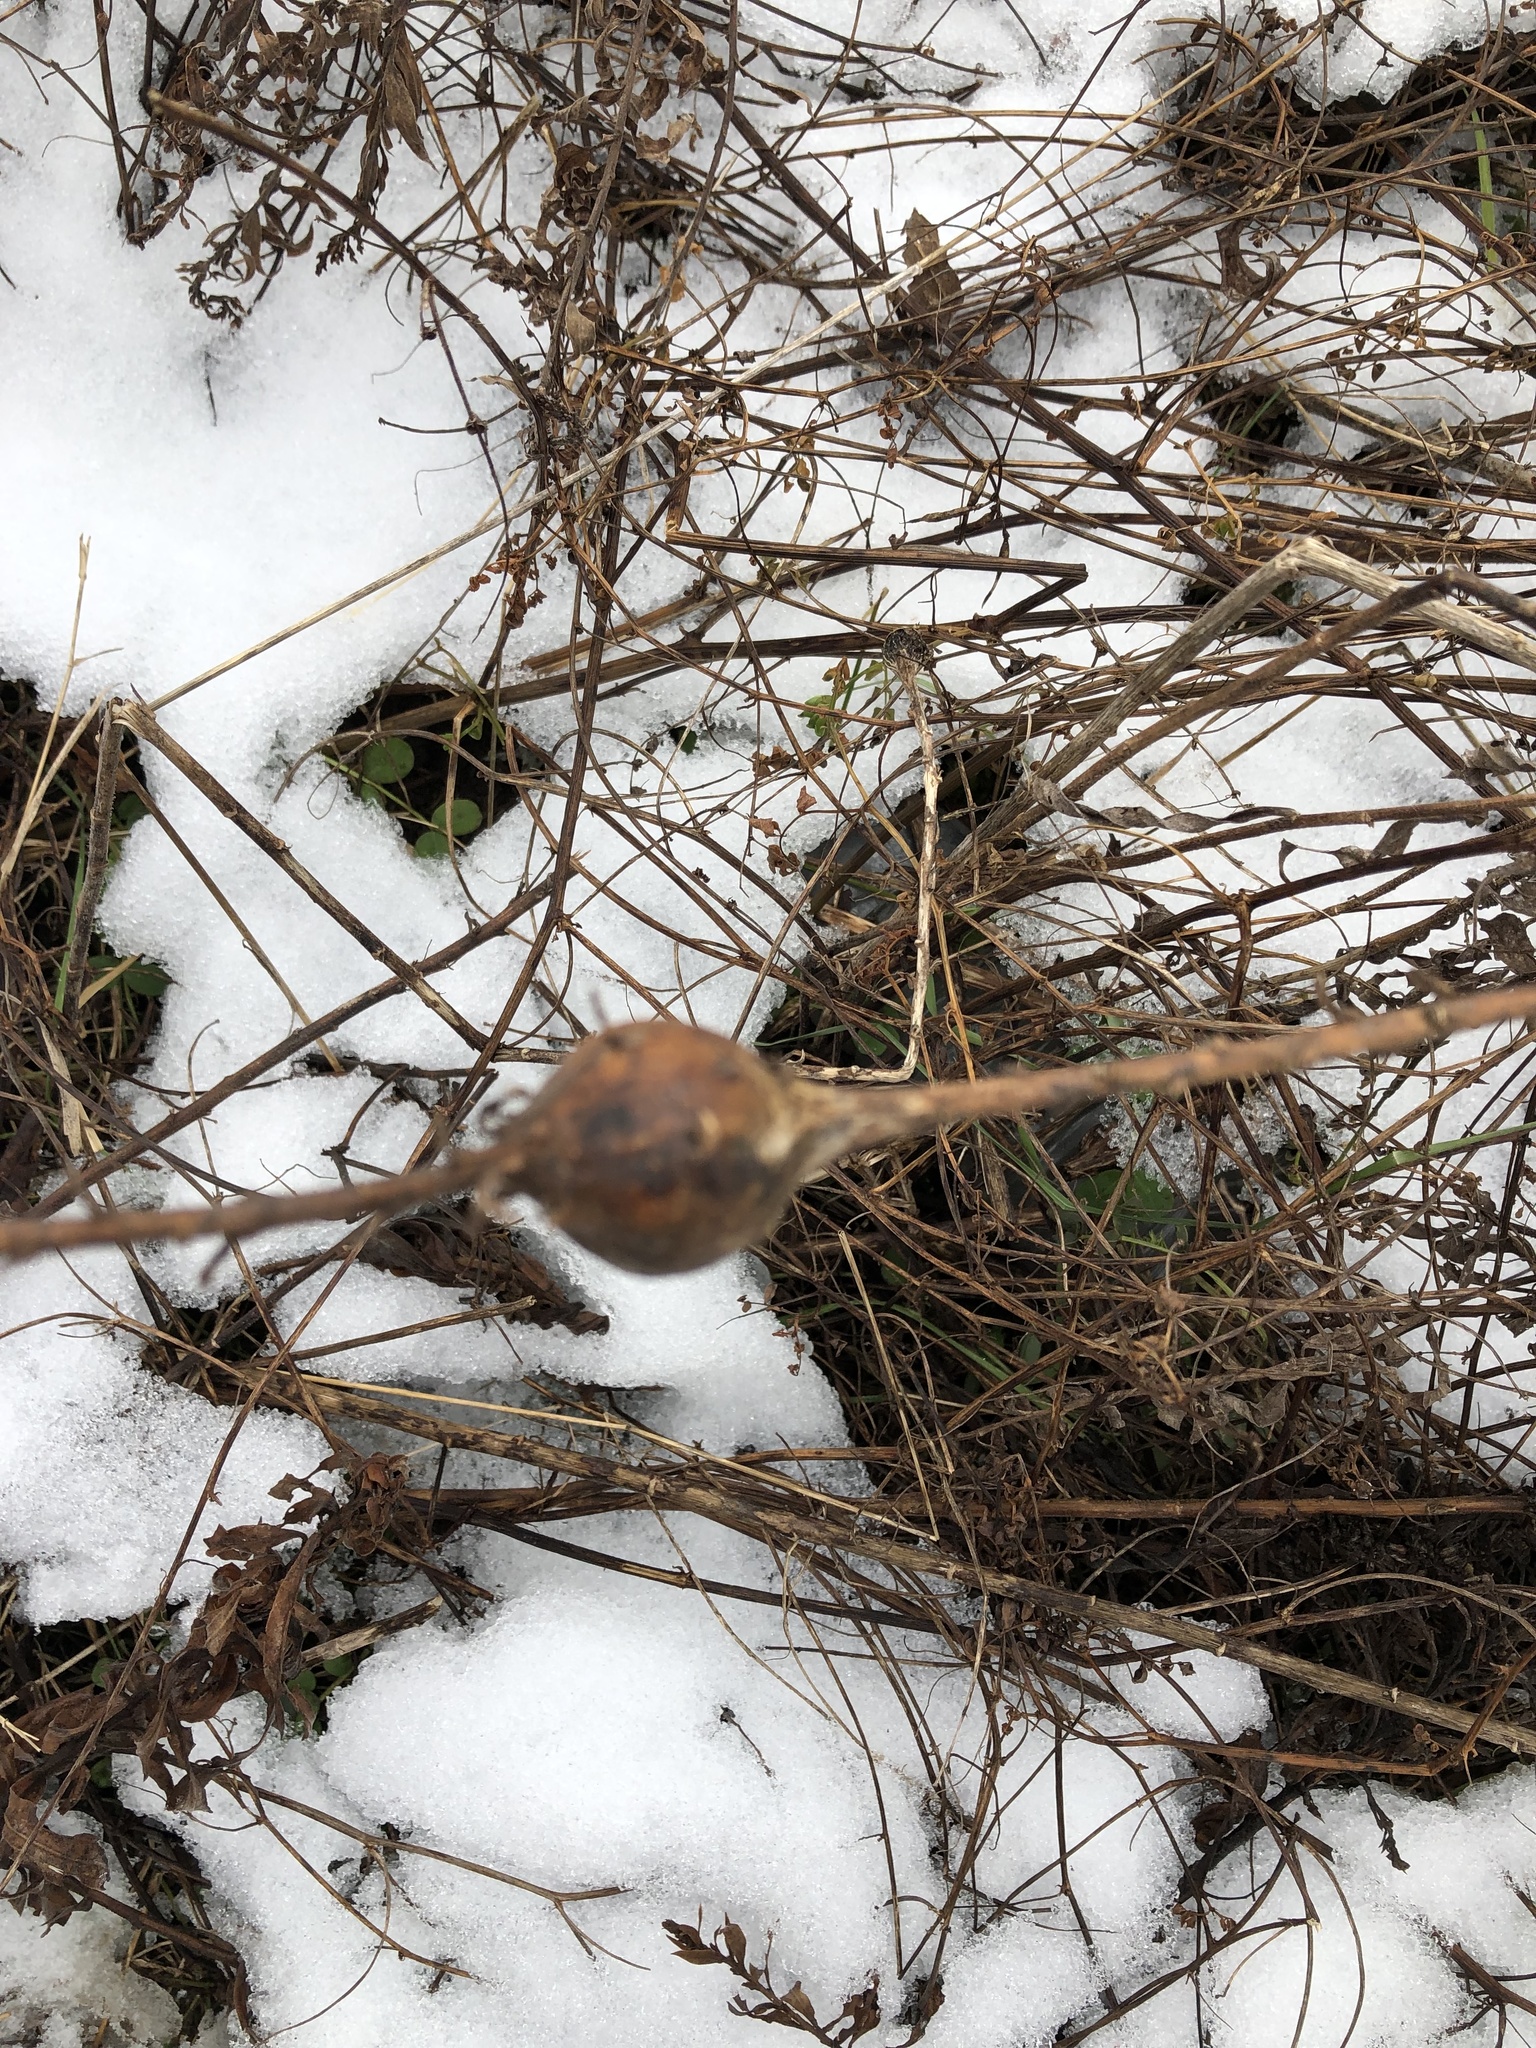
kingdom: Animalia
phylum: Arthropoda
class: Insecta
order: Diptera
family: Tephritidae
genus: Eurosta
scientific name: Eurosta solidaginis
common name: Goldenrod gall fly
